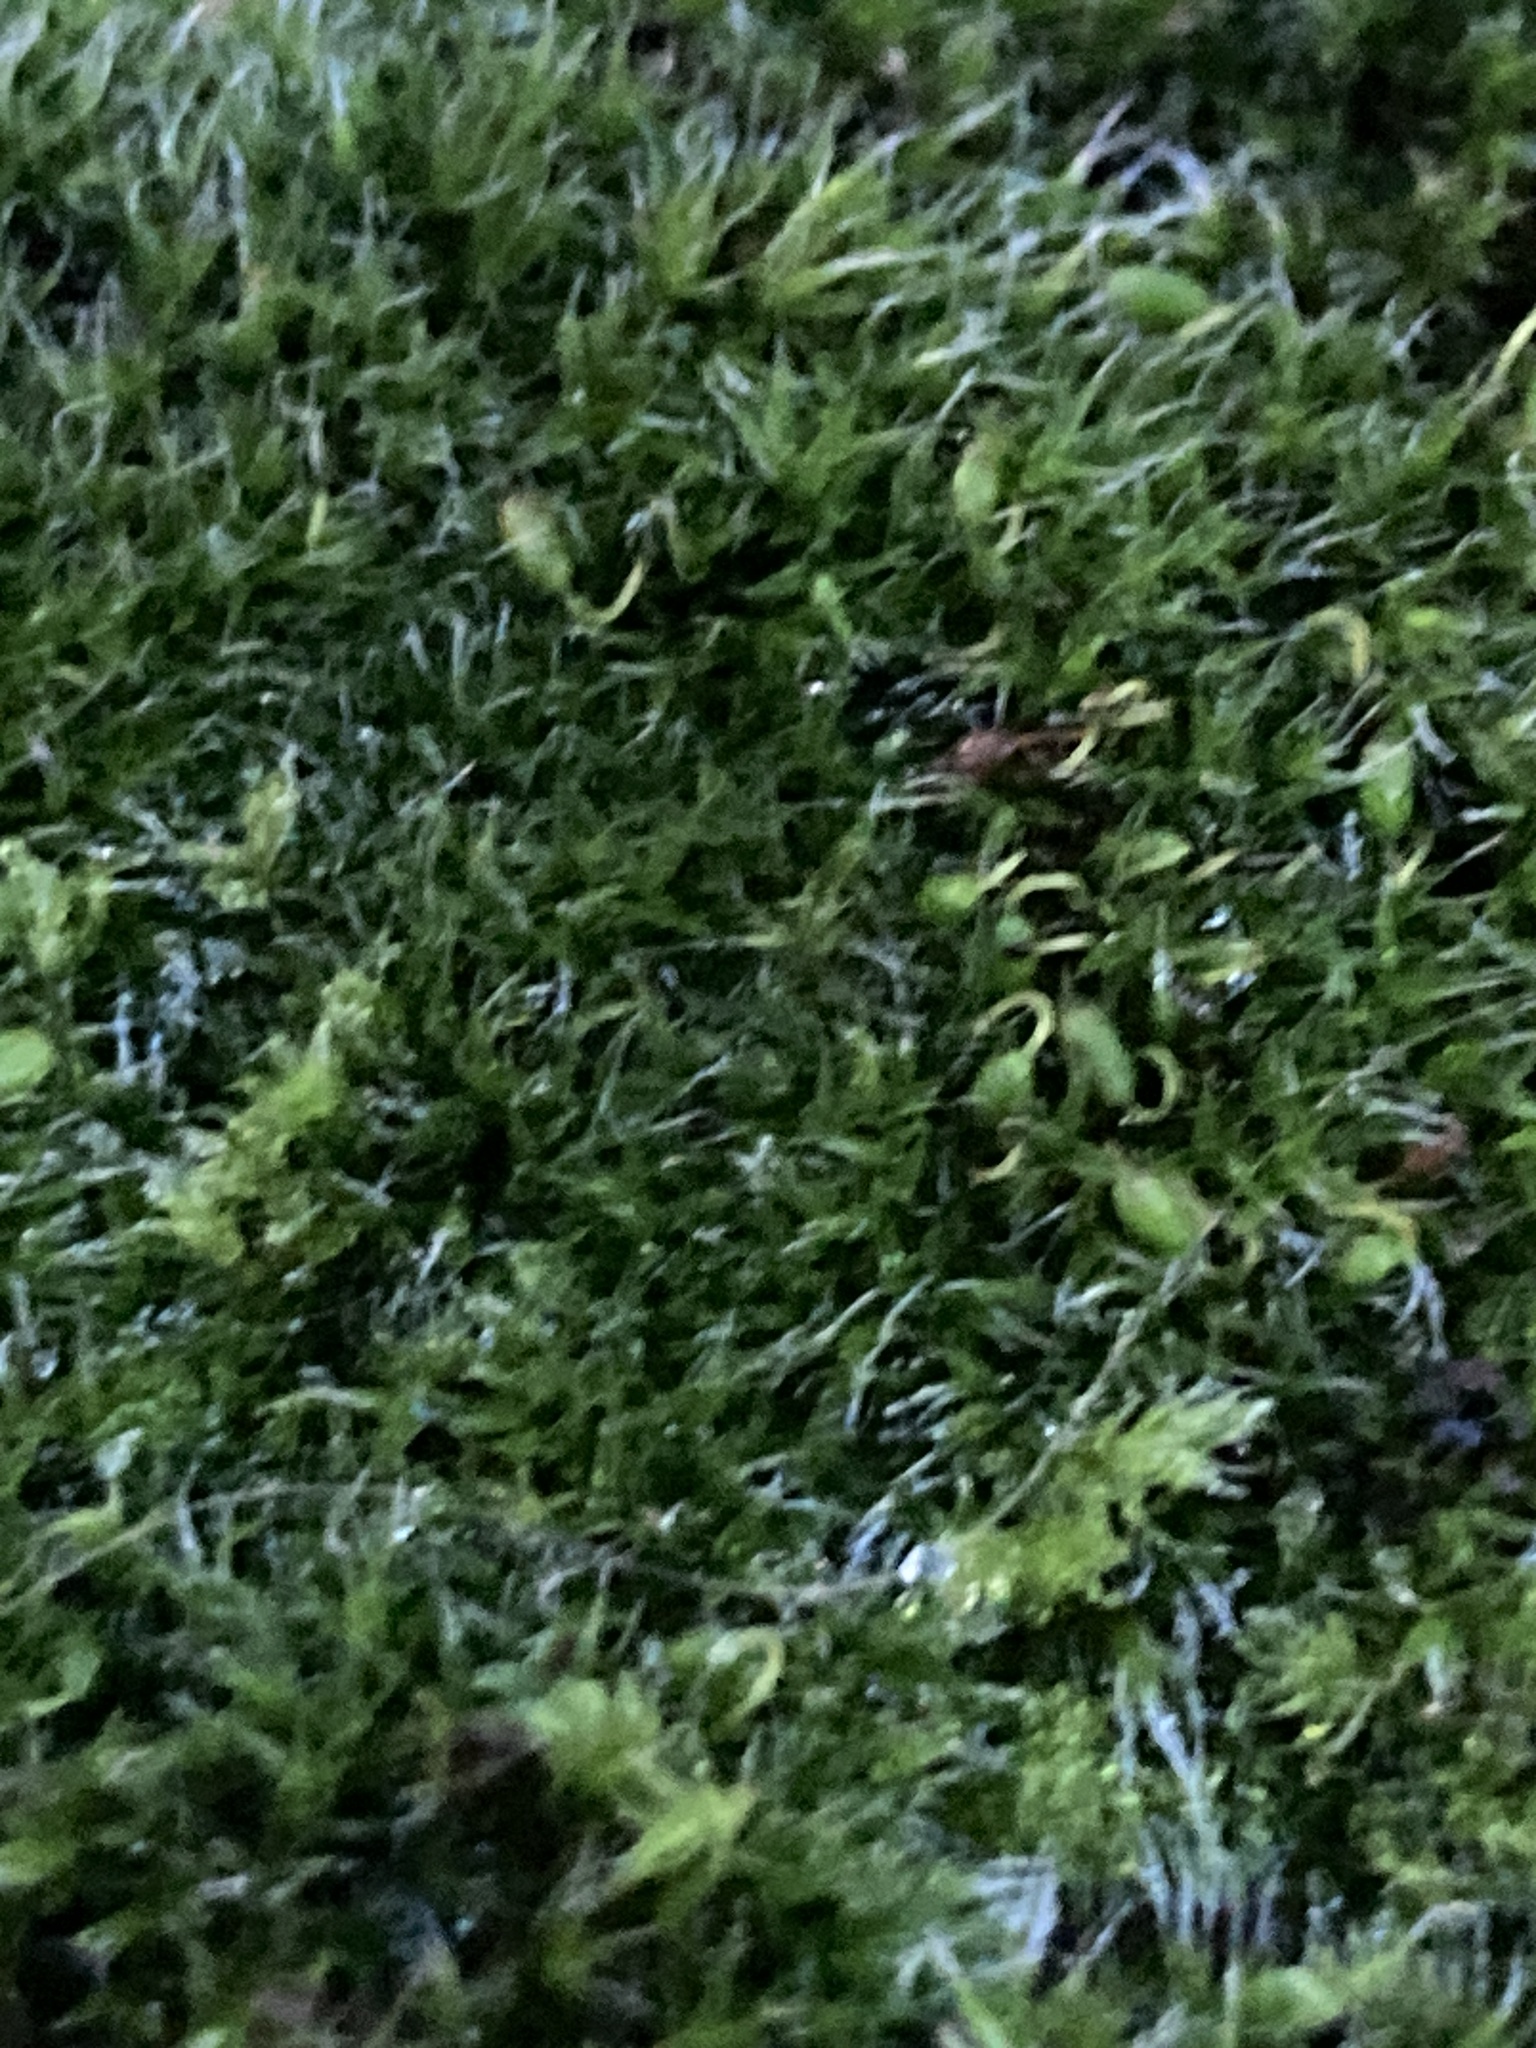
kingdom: Plantae
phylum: Bryophyta
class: Bryopsida
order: Grimmiales
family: Grimmiaceae
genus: Grimmia
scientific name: Grimmia pulvinata
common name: Grey-cushioned grimmia
